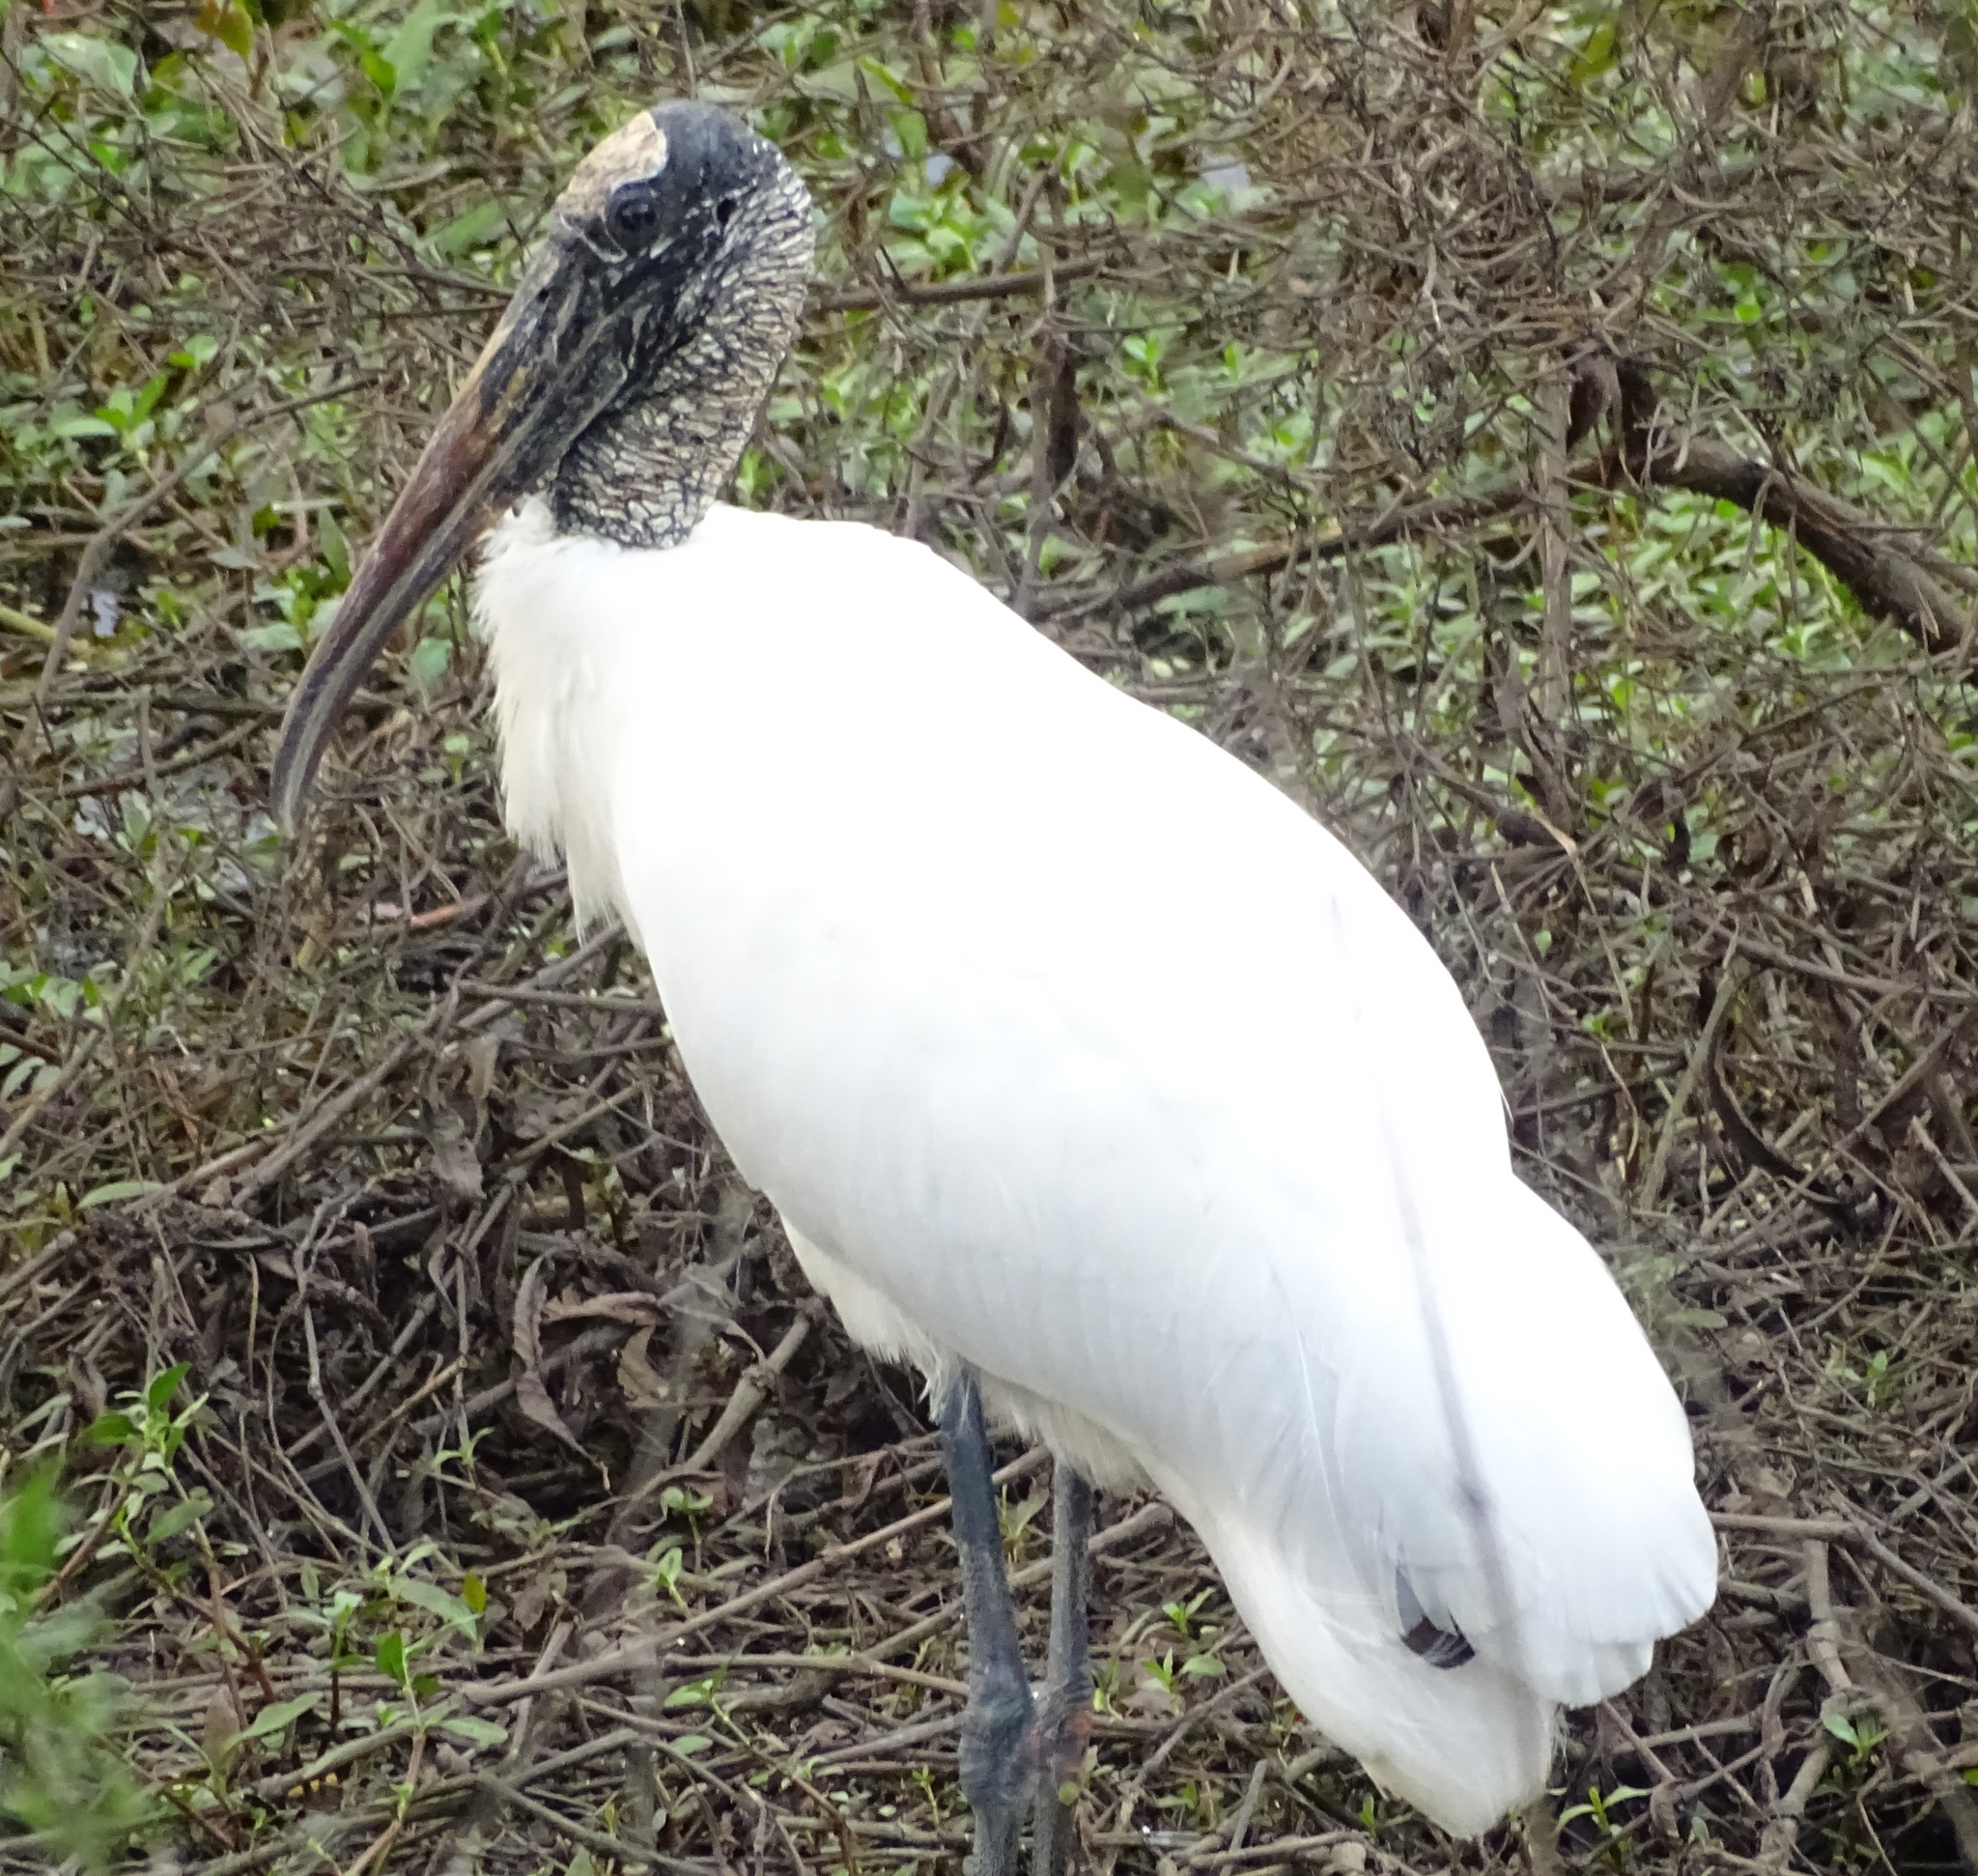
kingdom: Animalia
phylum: Chordata
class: Aves
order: Ciconiiformes
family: Ciconiidae
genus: Mycteria
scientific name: Mycteria americana
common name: Wood stork
